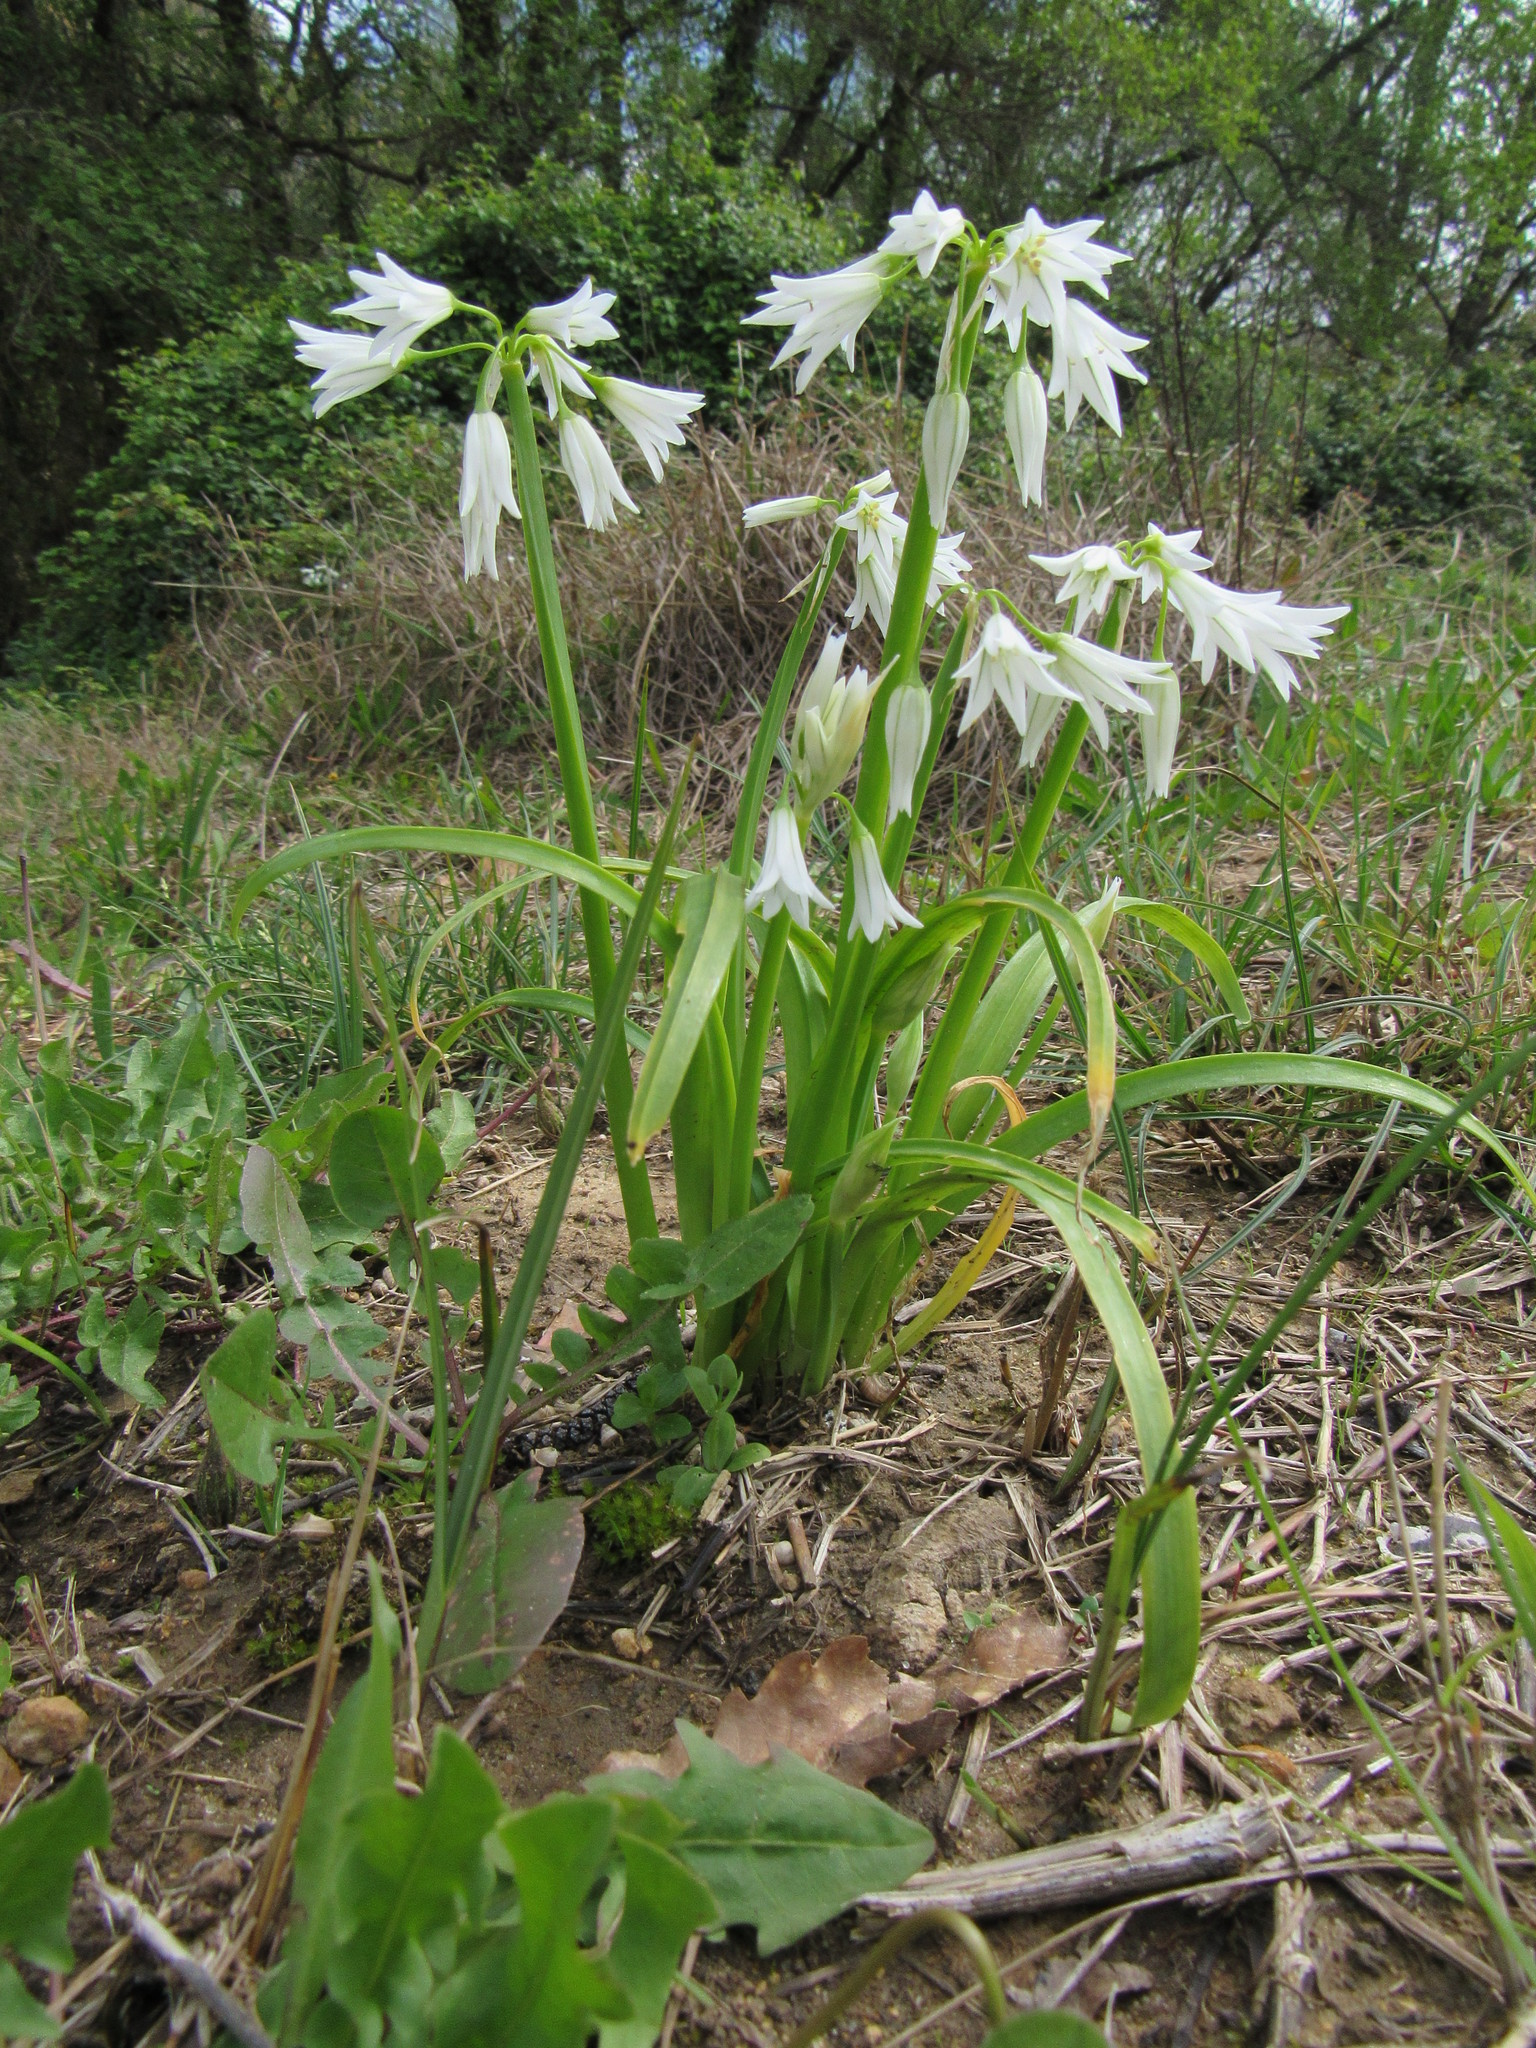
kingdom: Plantae
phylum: Tracheophyta
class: Liliopsida
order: Asparagales
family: Amaryllidaceae
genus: Allium
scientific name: Allium triquetrum
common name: Three-cornered garlic
